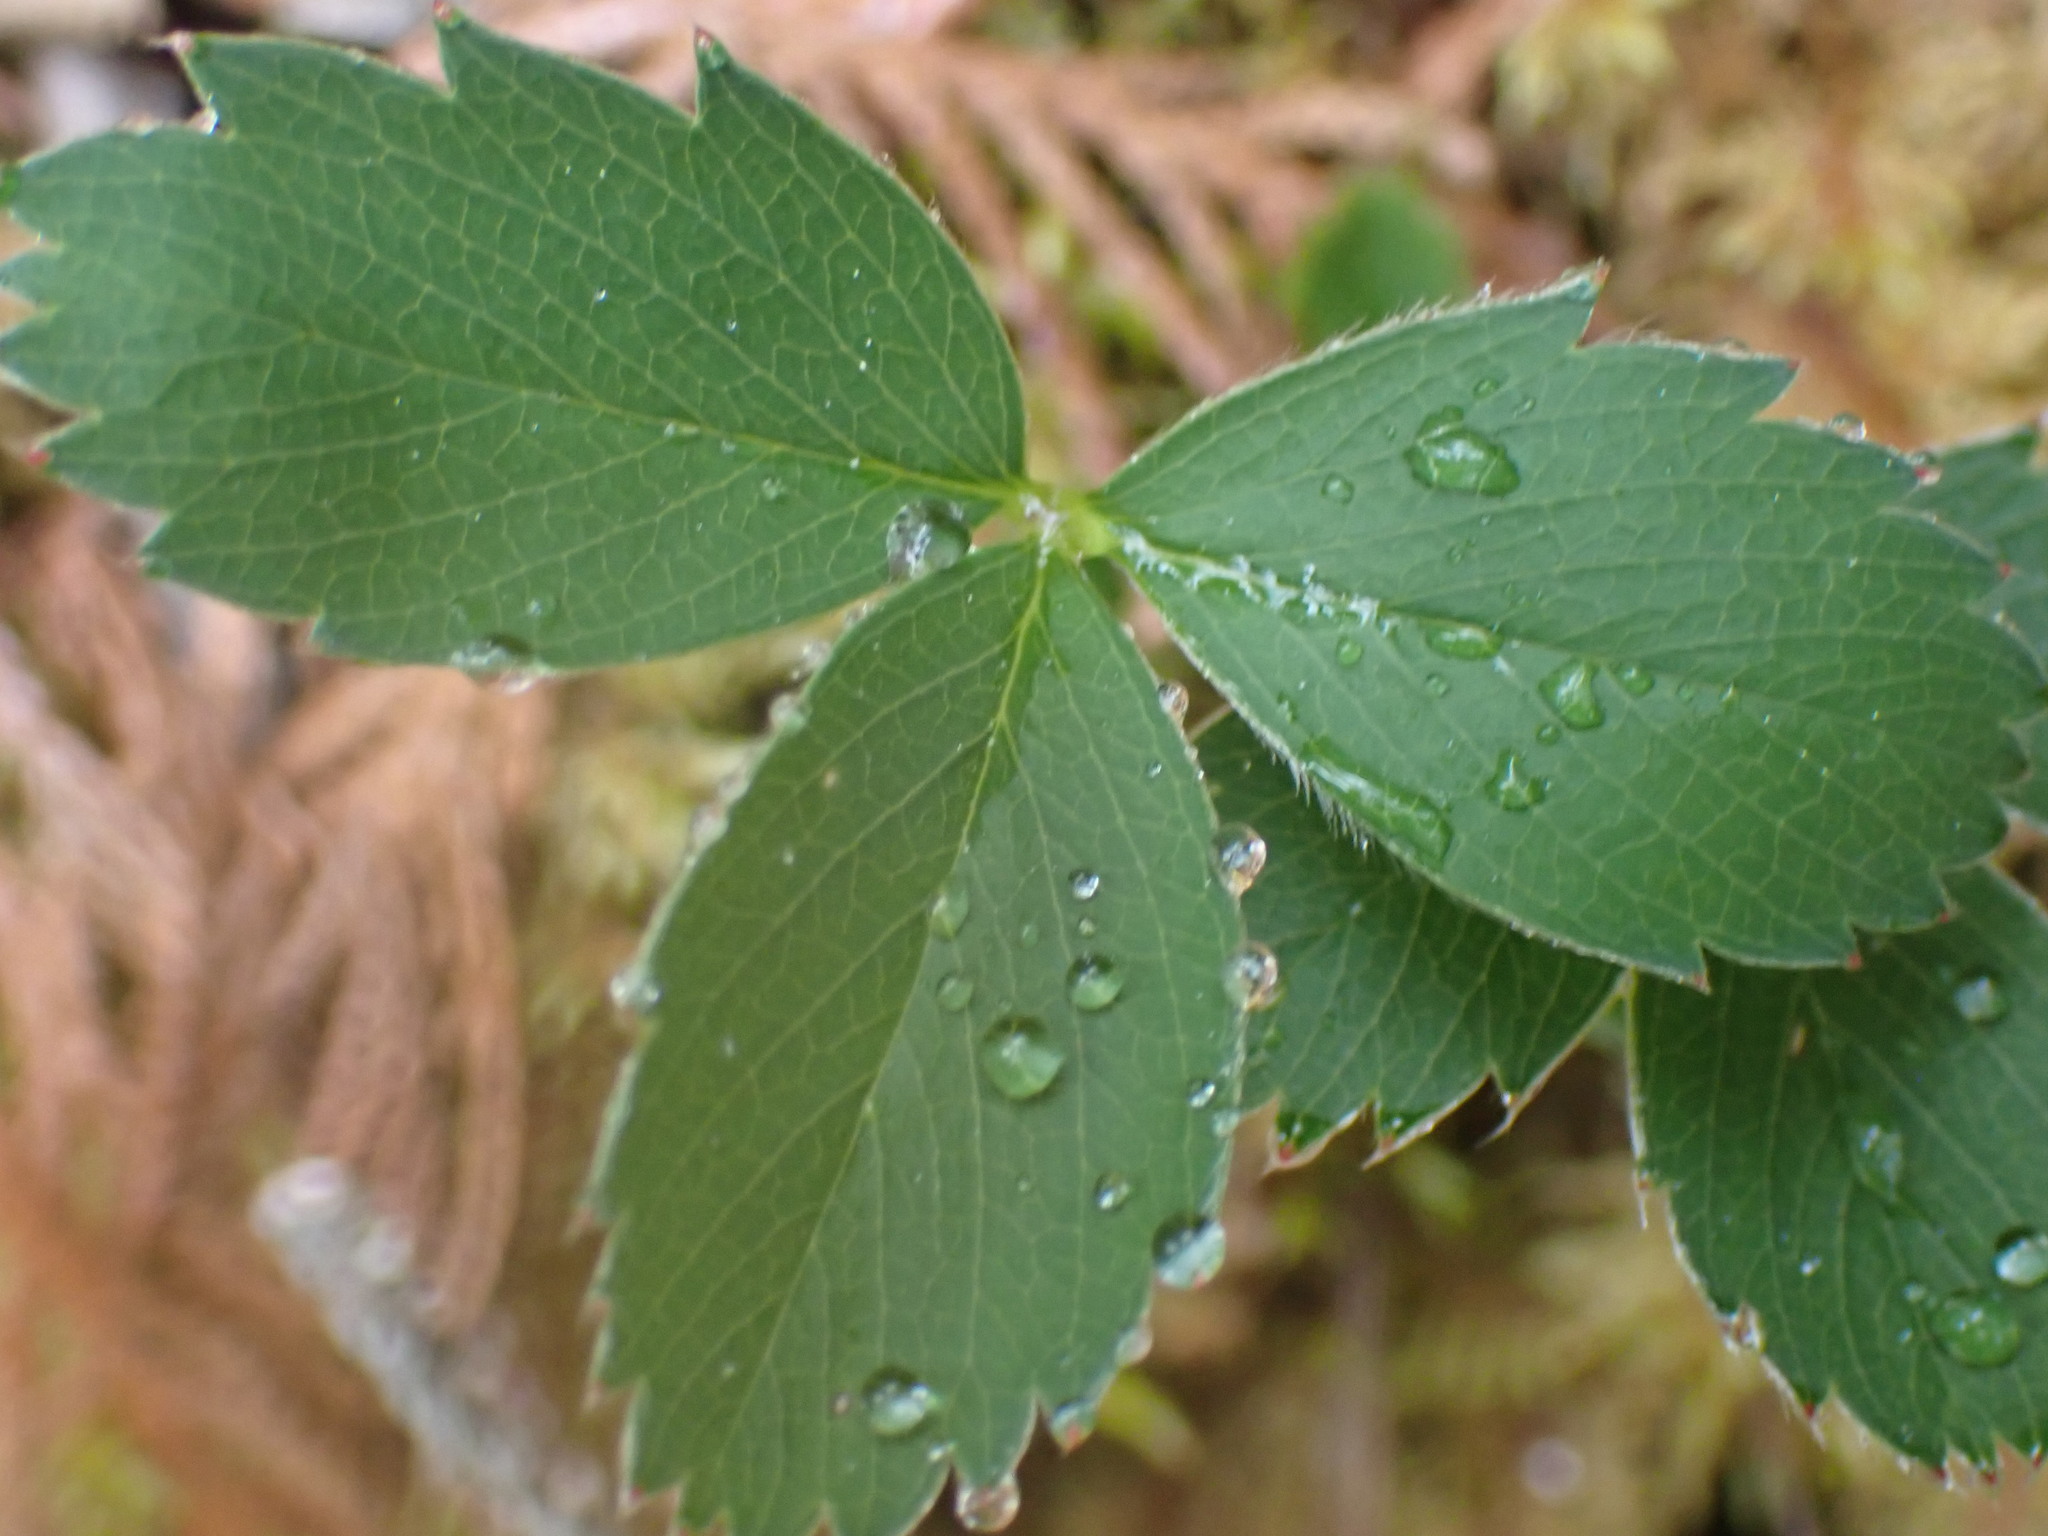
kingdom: Plantae
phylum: Tracheophyta
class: Magnoliopsida
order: Rosales
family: Rosaceae
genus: Fragaria
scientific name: Fragaria virginiana
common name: Thickleaved wild strawberry
